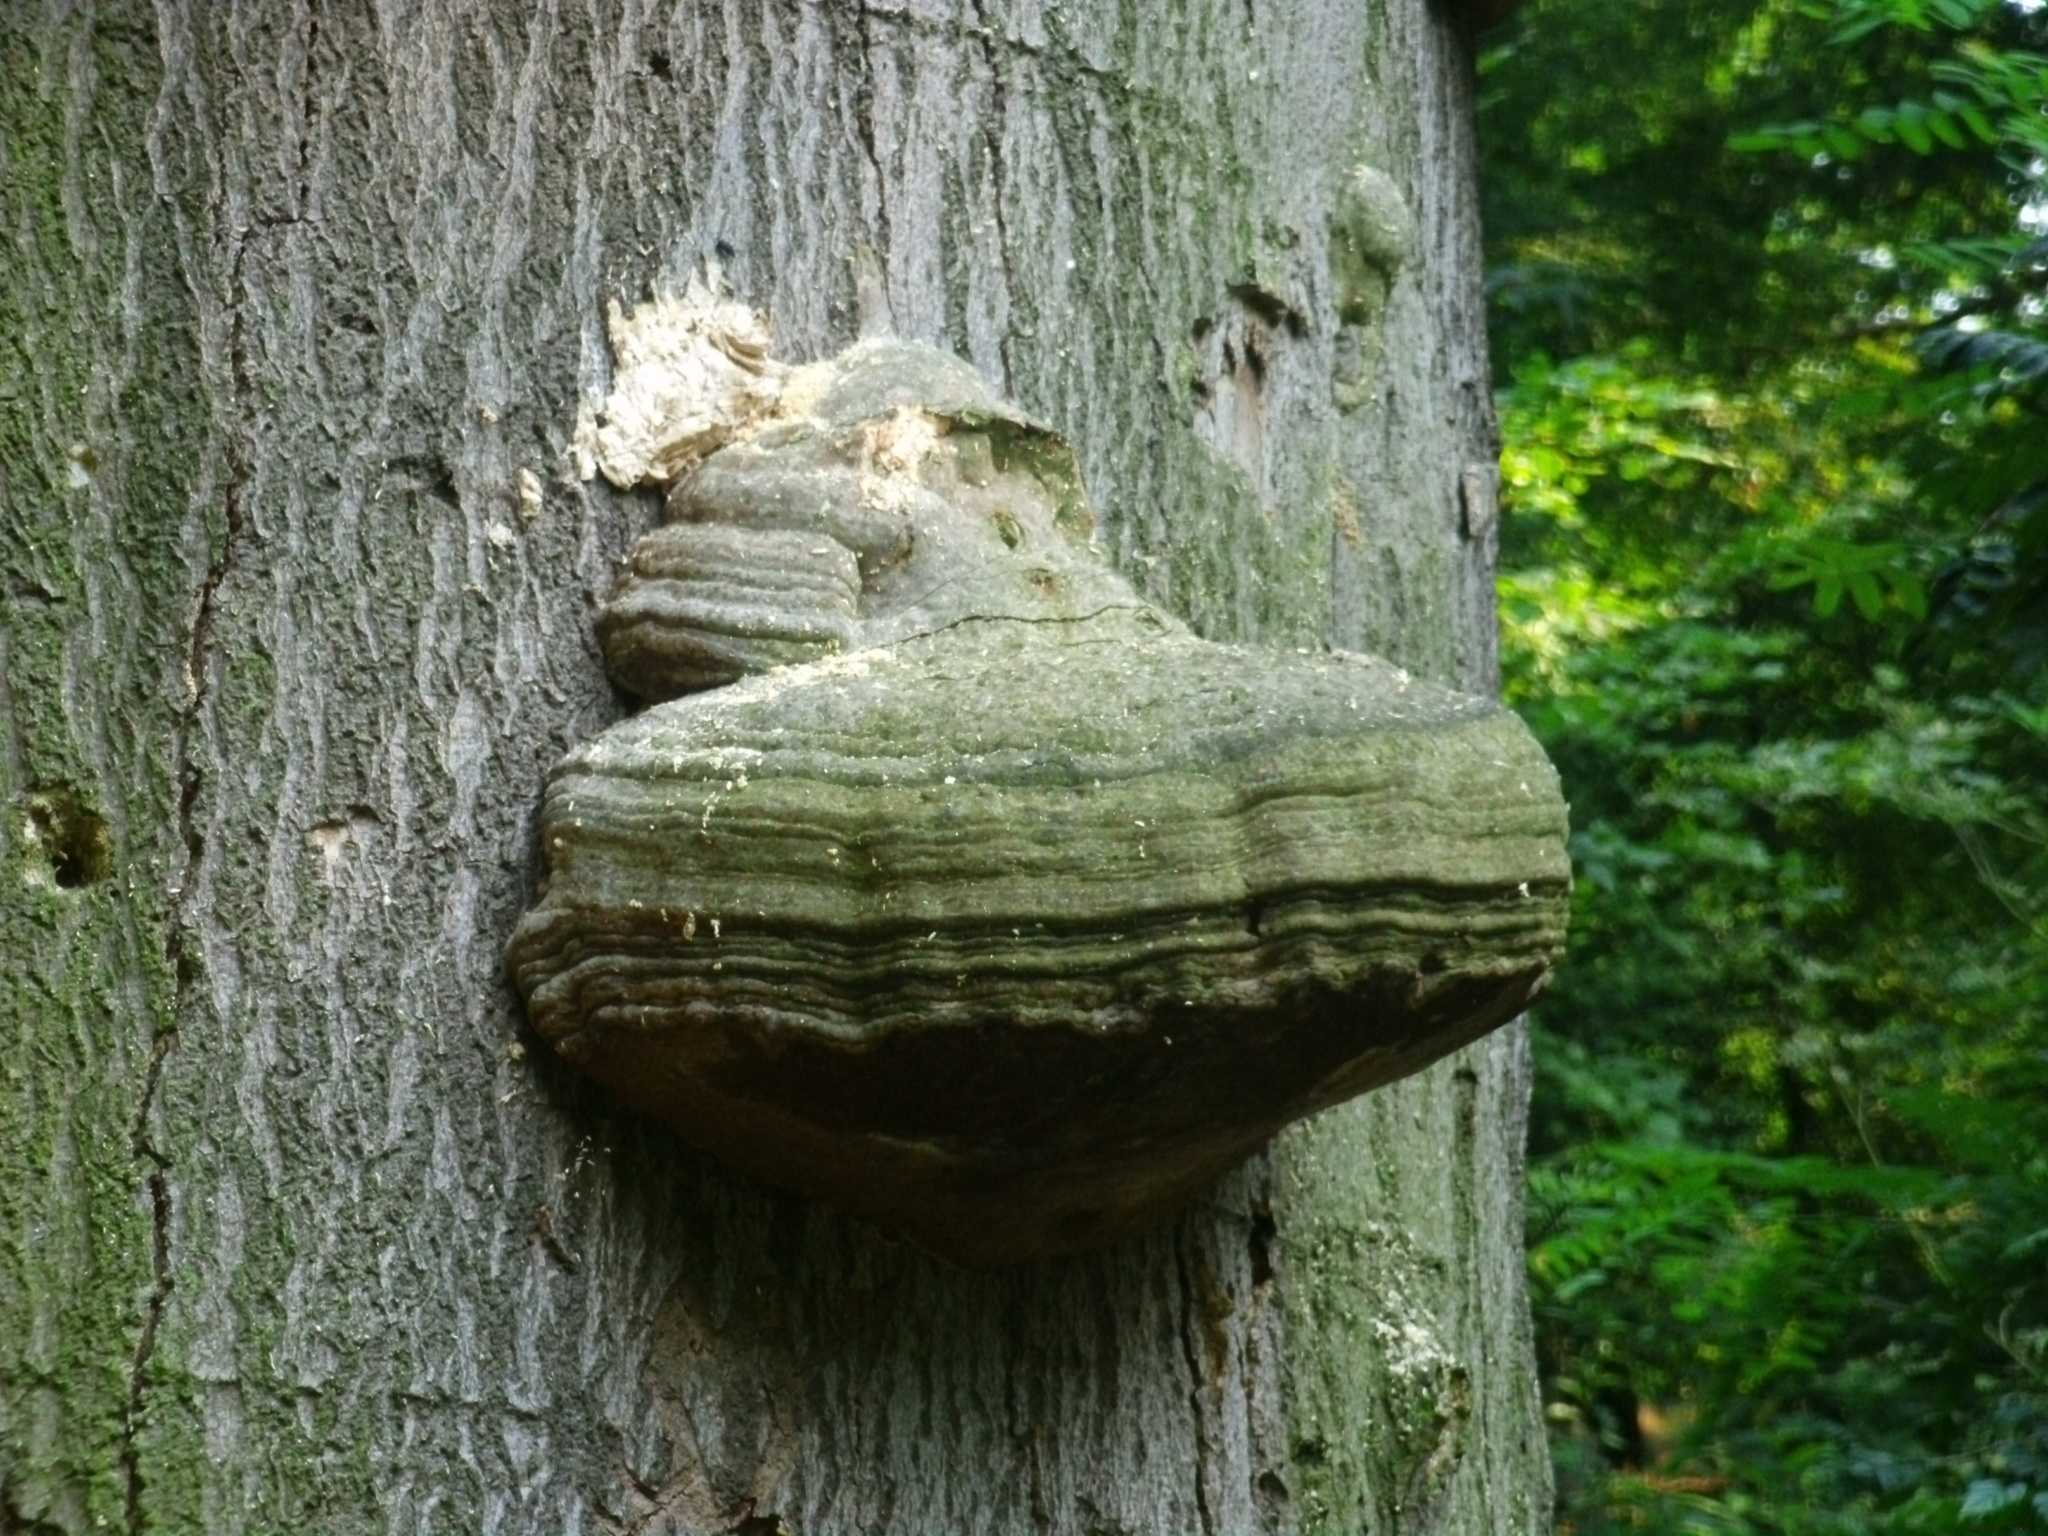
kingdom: Fungi
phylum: Basidiomycota
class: Agaricomycetes
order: Polyporales
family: Polyporaceae
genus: Fomes
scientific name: Fomes fomentarius
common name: Hoof fungus
